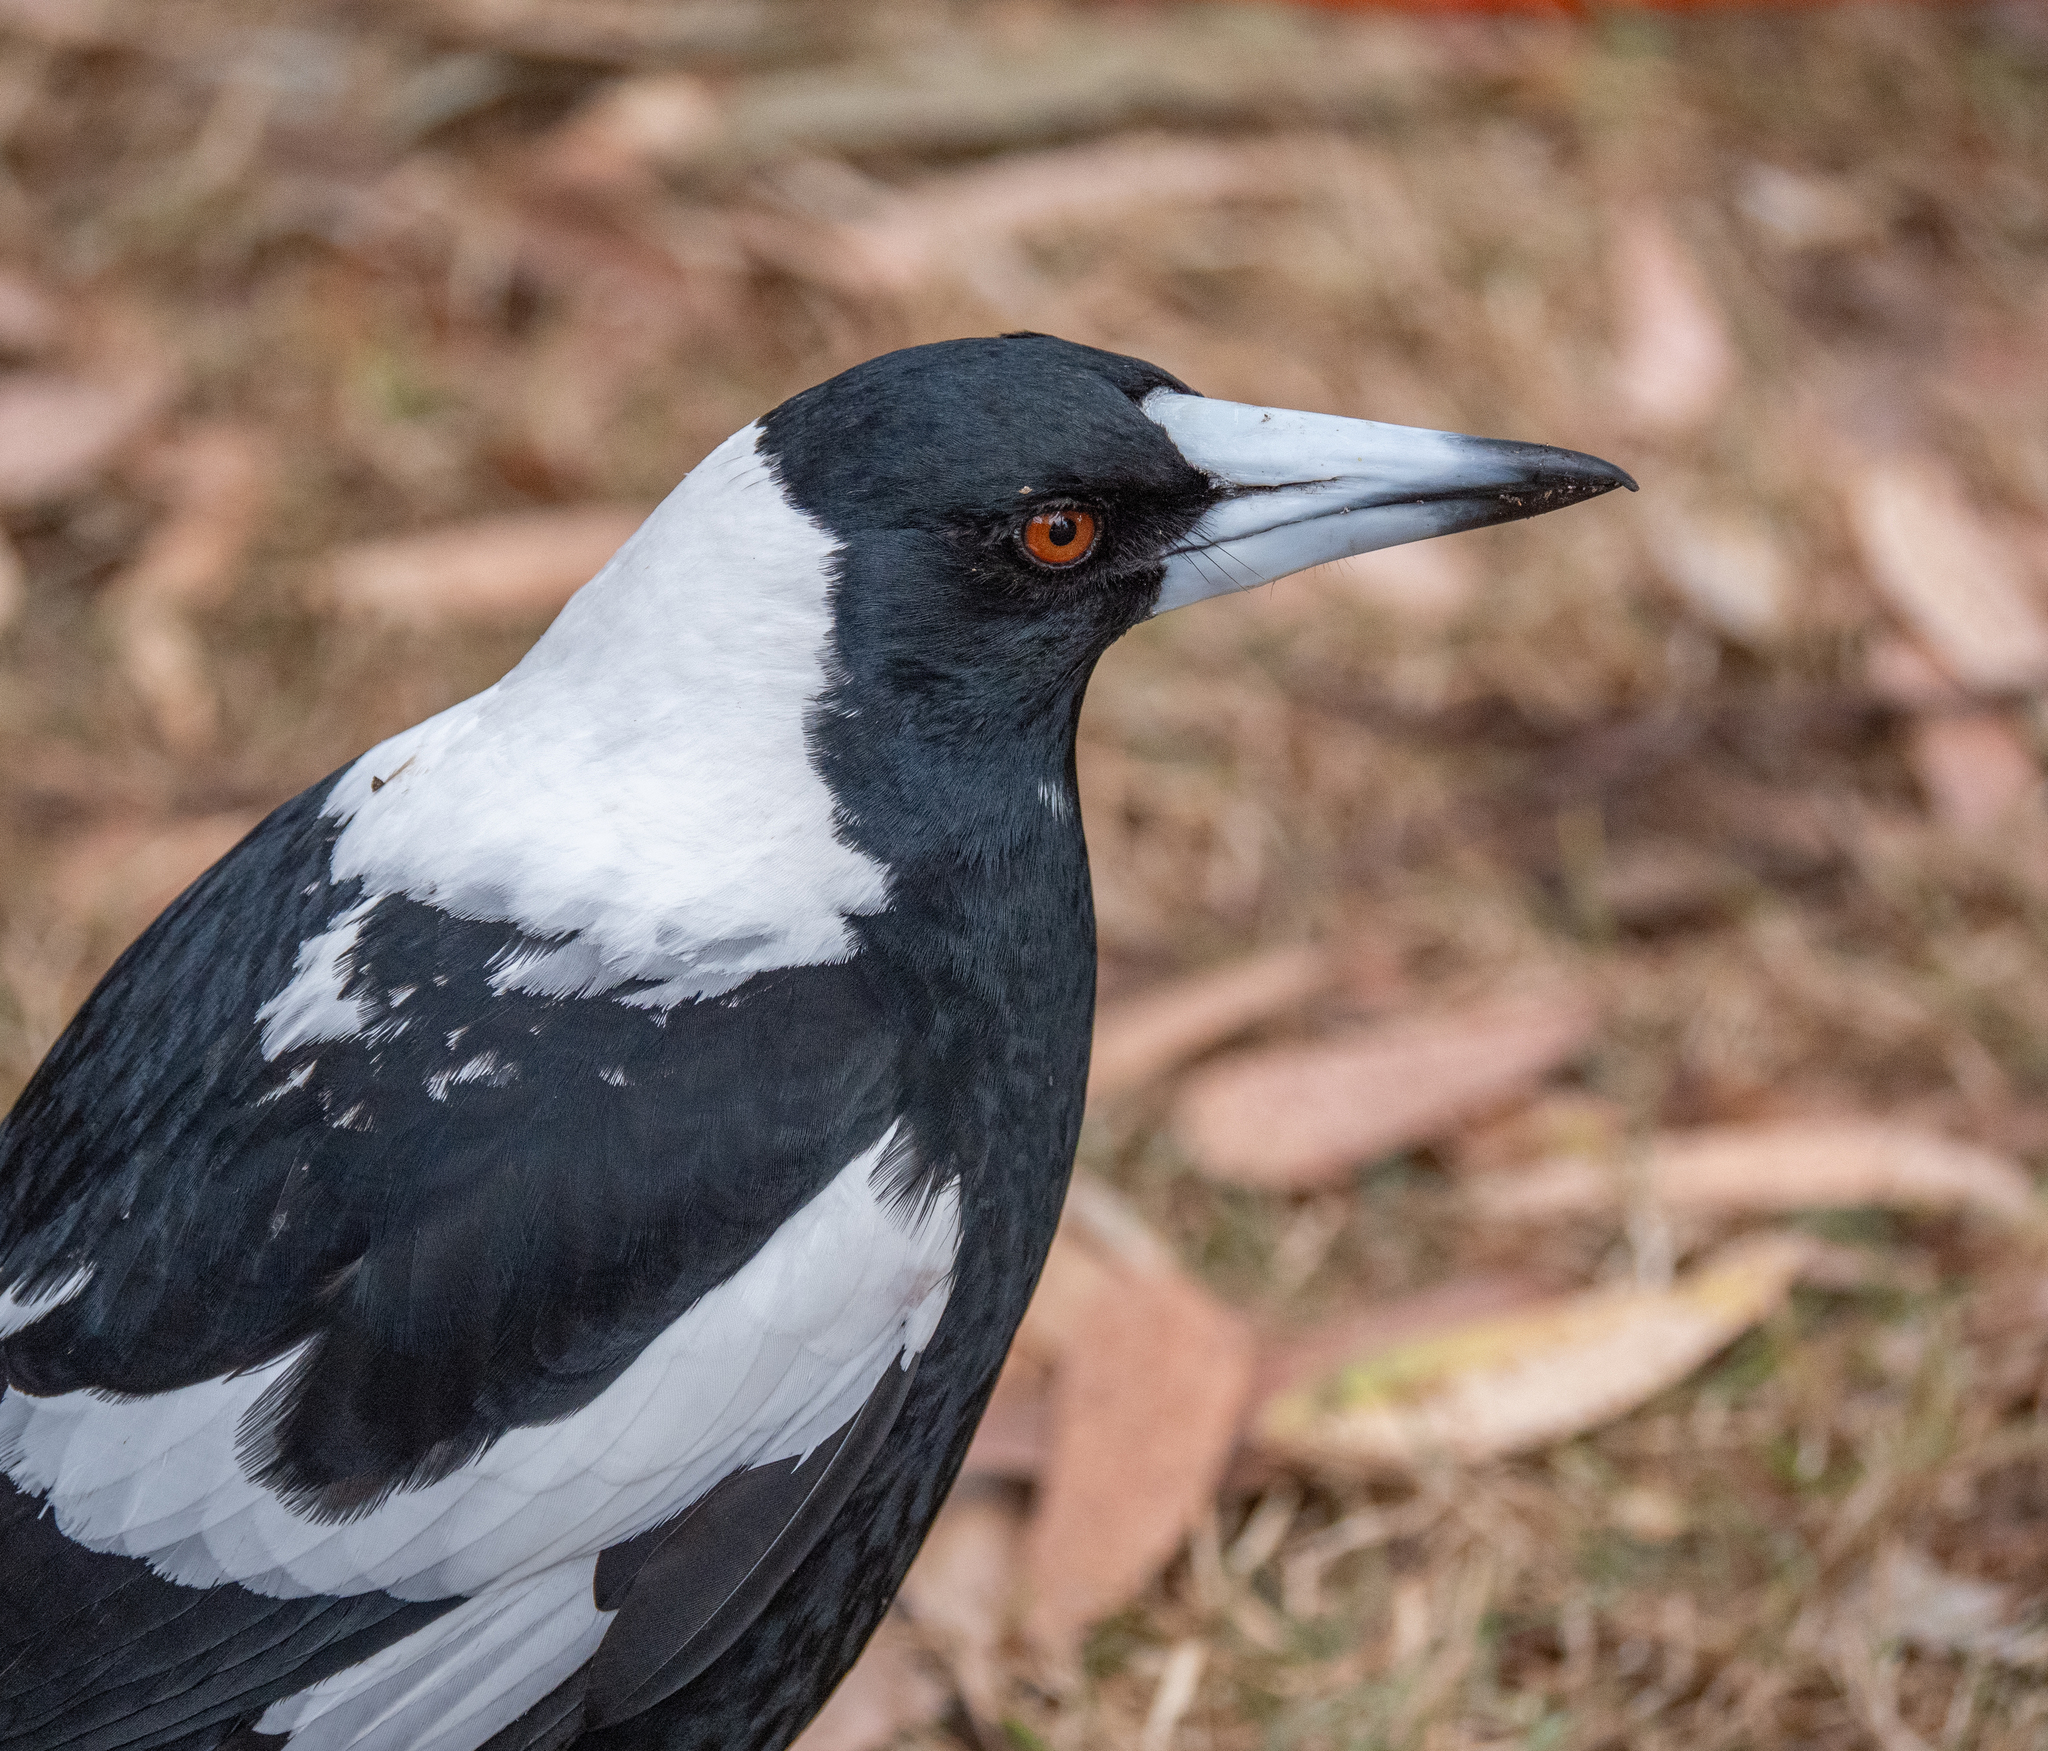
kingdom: Animalia
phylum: Chordata
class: Aves
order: Passeriformes
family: Cracticidae
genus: Gymnorhina
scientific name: Gymnorhina tibicen
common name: Australian magpie
